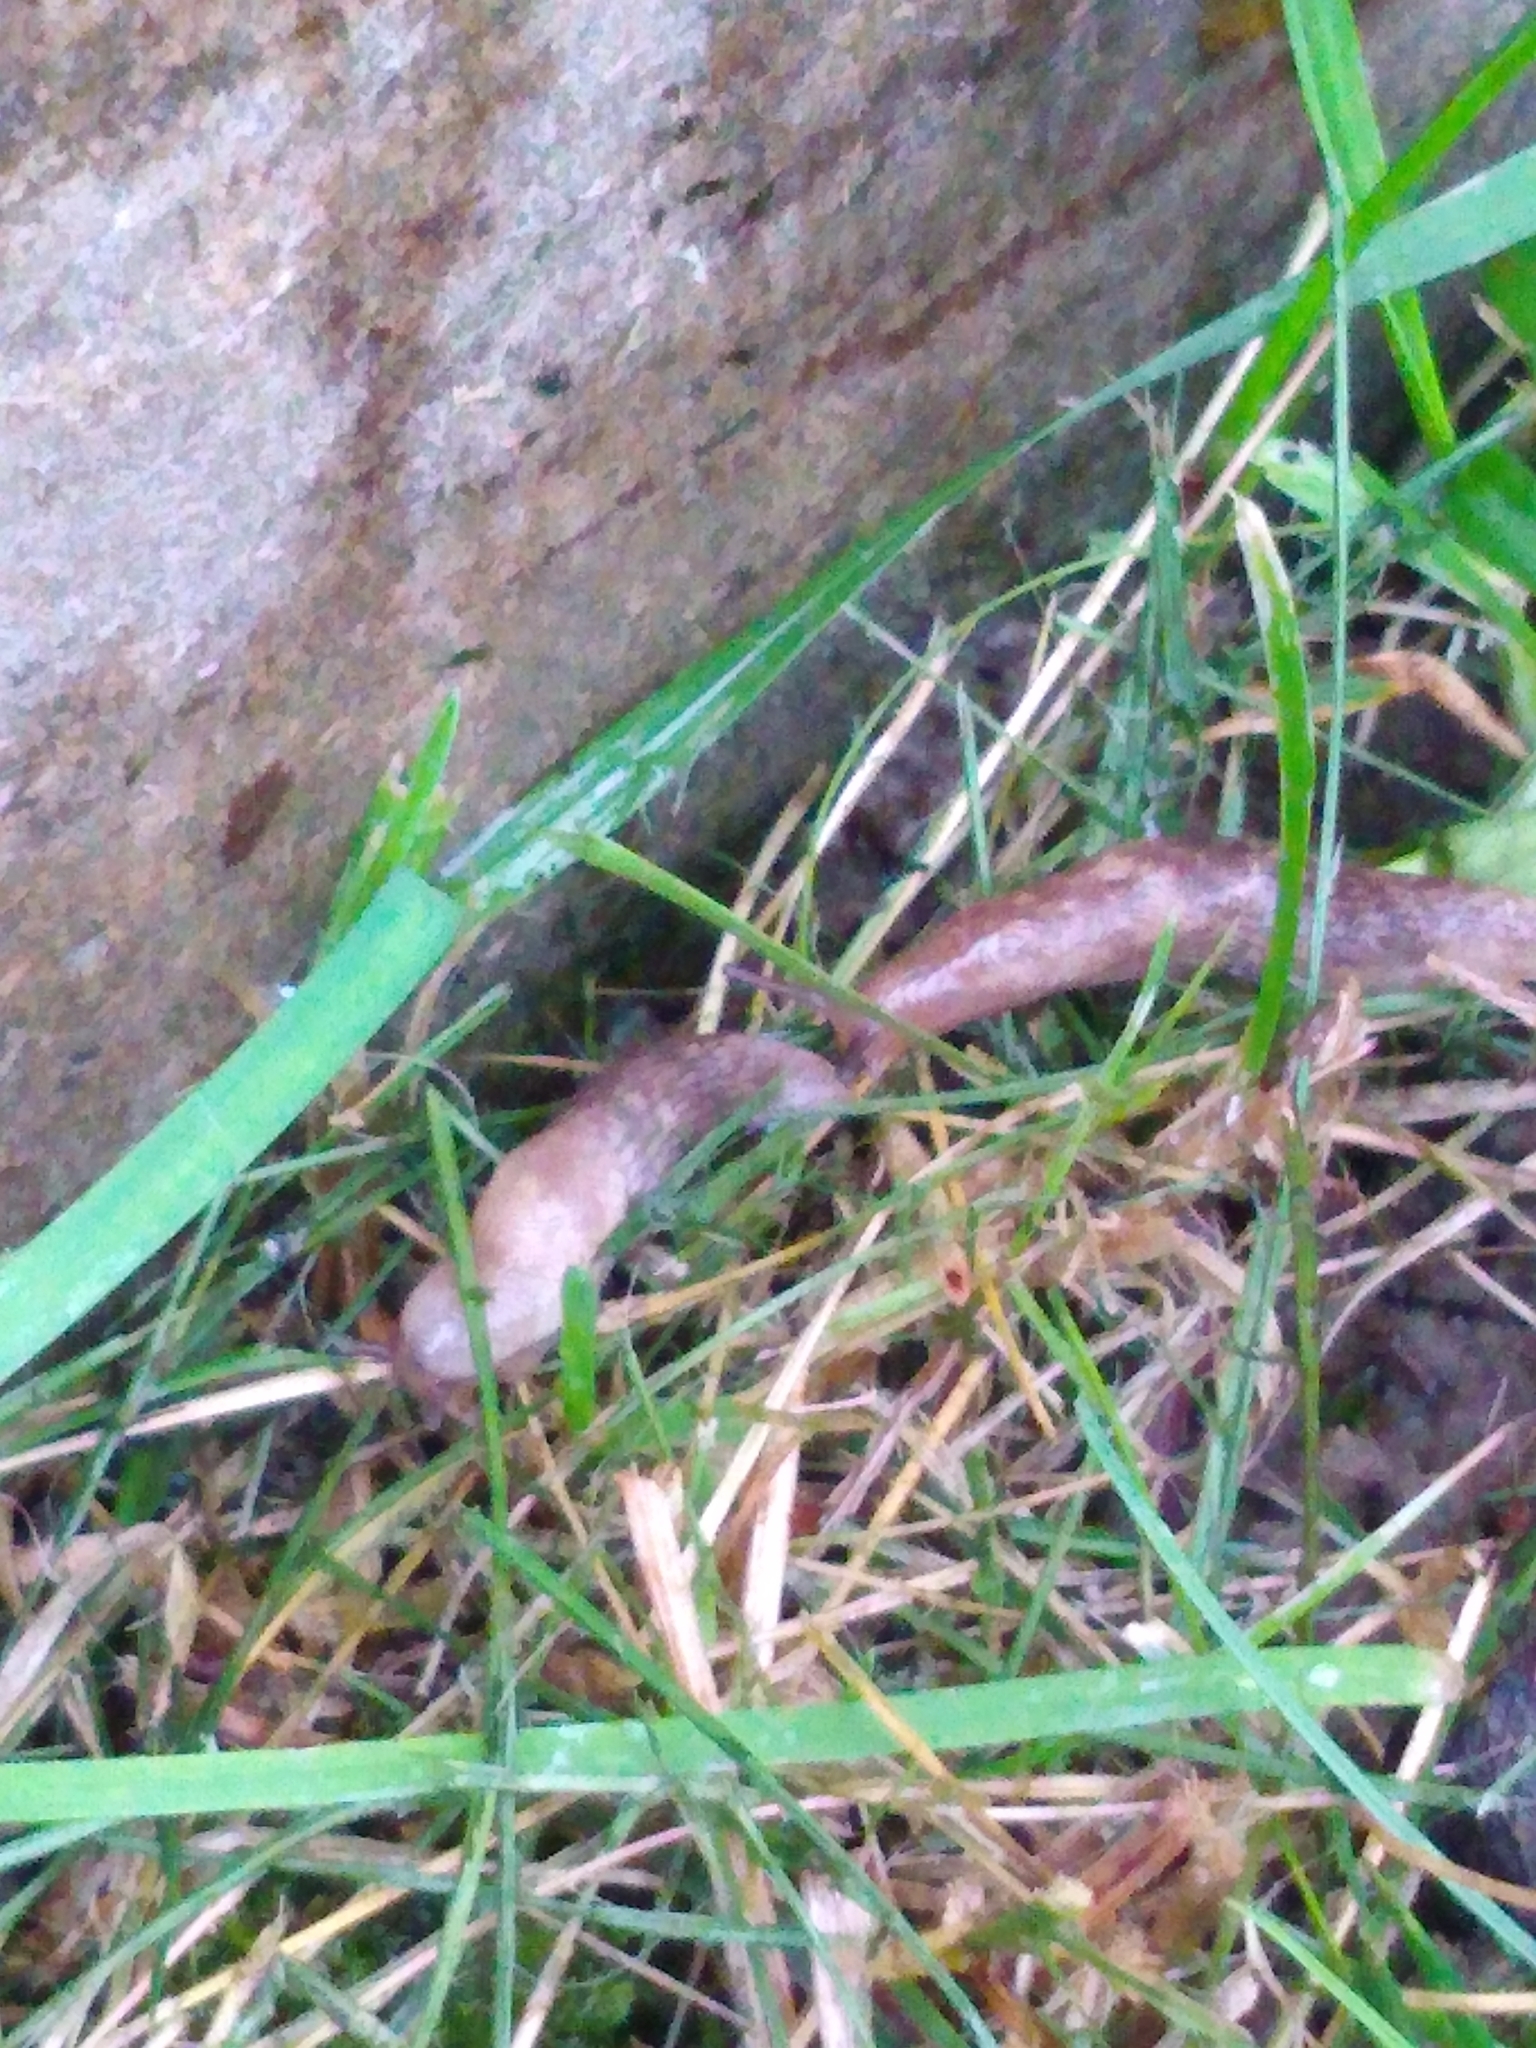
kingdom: Animalia
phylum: Mollusca
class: Gastropoda
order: Stylommatophora
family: Agriolimacidae
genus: Deroceras
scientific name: Deroceras reticulatum
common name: Gray field slug
